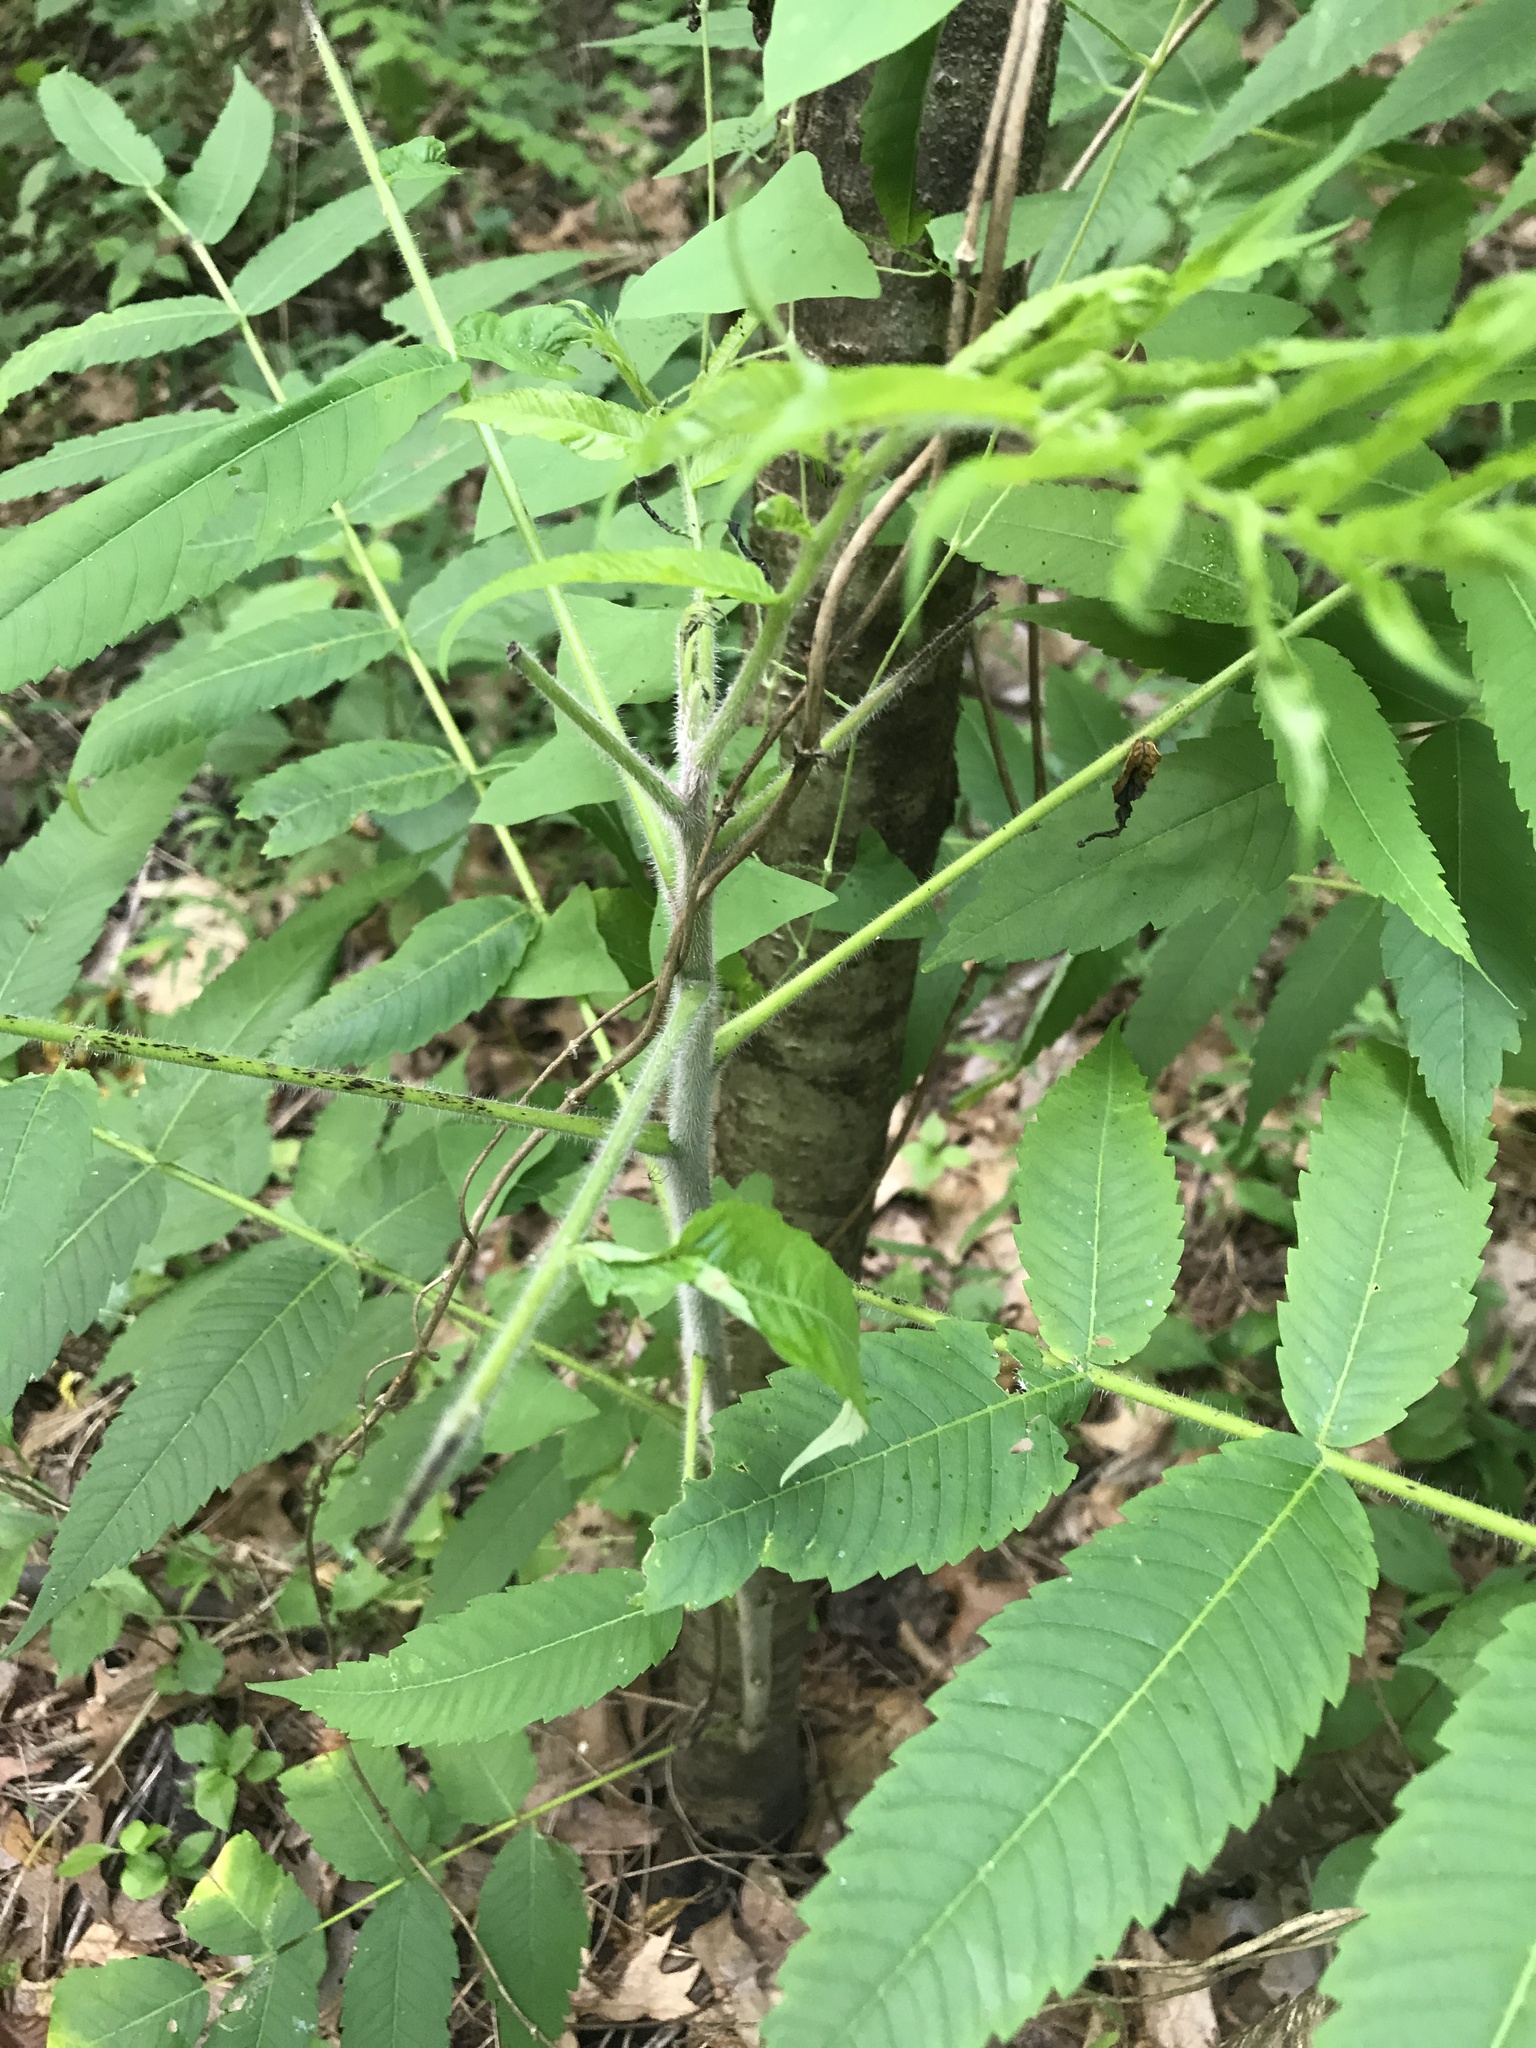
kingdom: Plantae
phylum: Tracheophyta
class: Magnoliopsida
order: Sapindales
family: Anacardiaceae
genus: Rhus
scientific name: Rhus typhina
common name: Staghorn sumac
